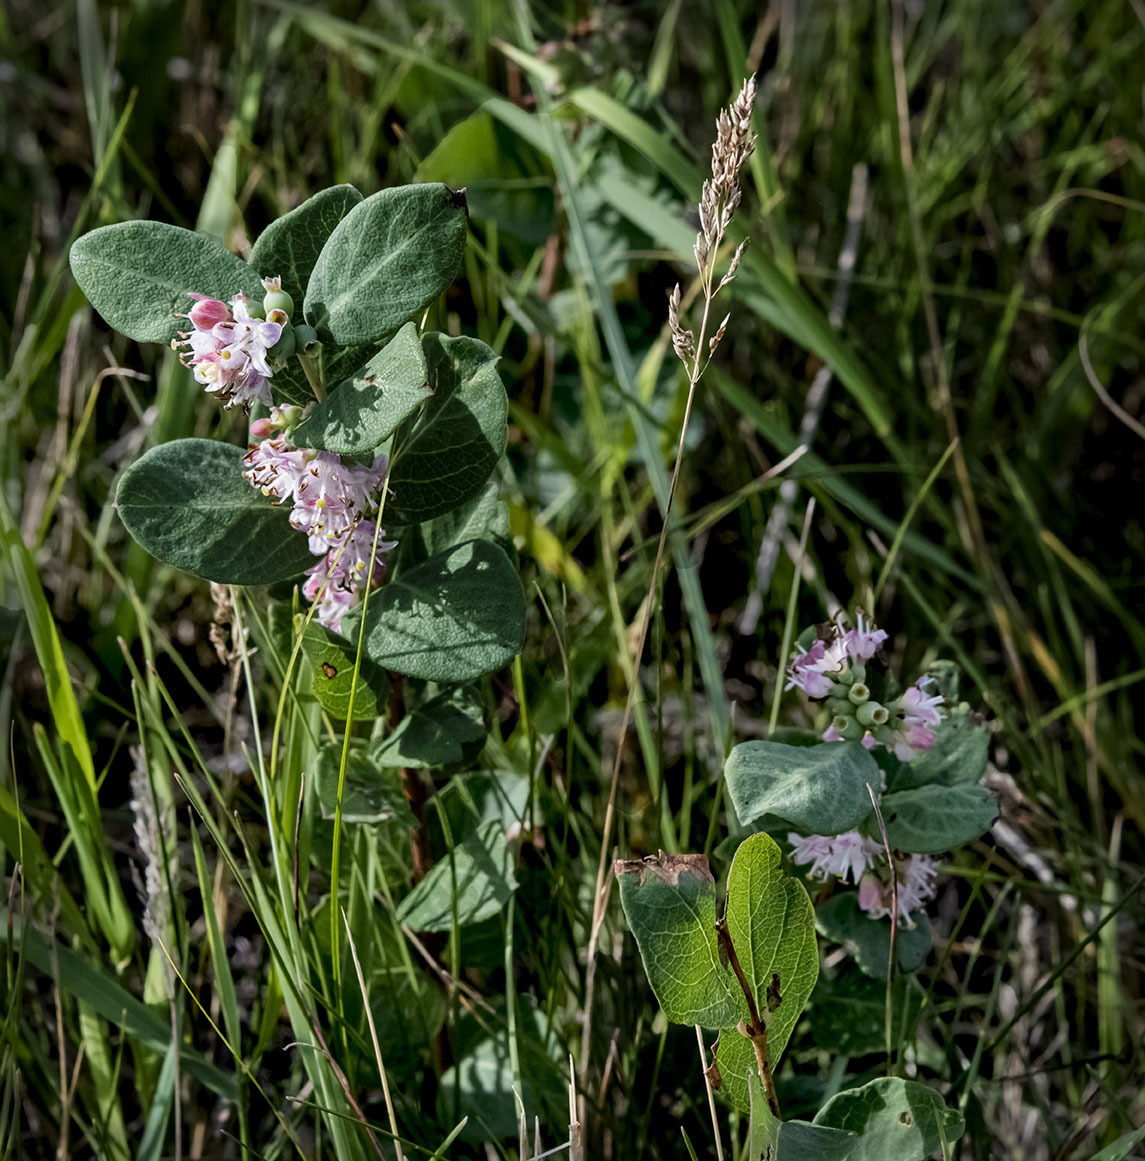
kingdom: Plantae
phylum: Tracheophyta
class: Magnoliopsida
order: Dipsacales
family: Caprifoliaceae
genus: Symphoricarpos
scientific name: Symphoricarpos occidentalis
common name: Wolfberry
